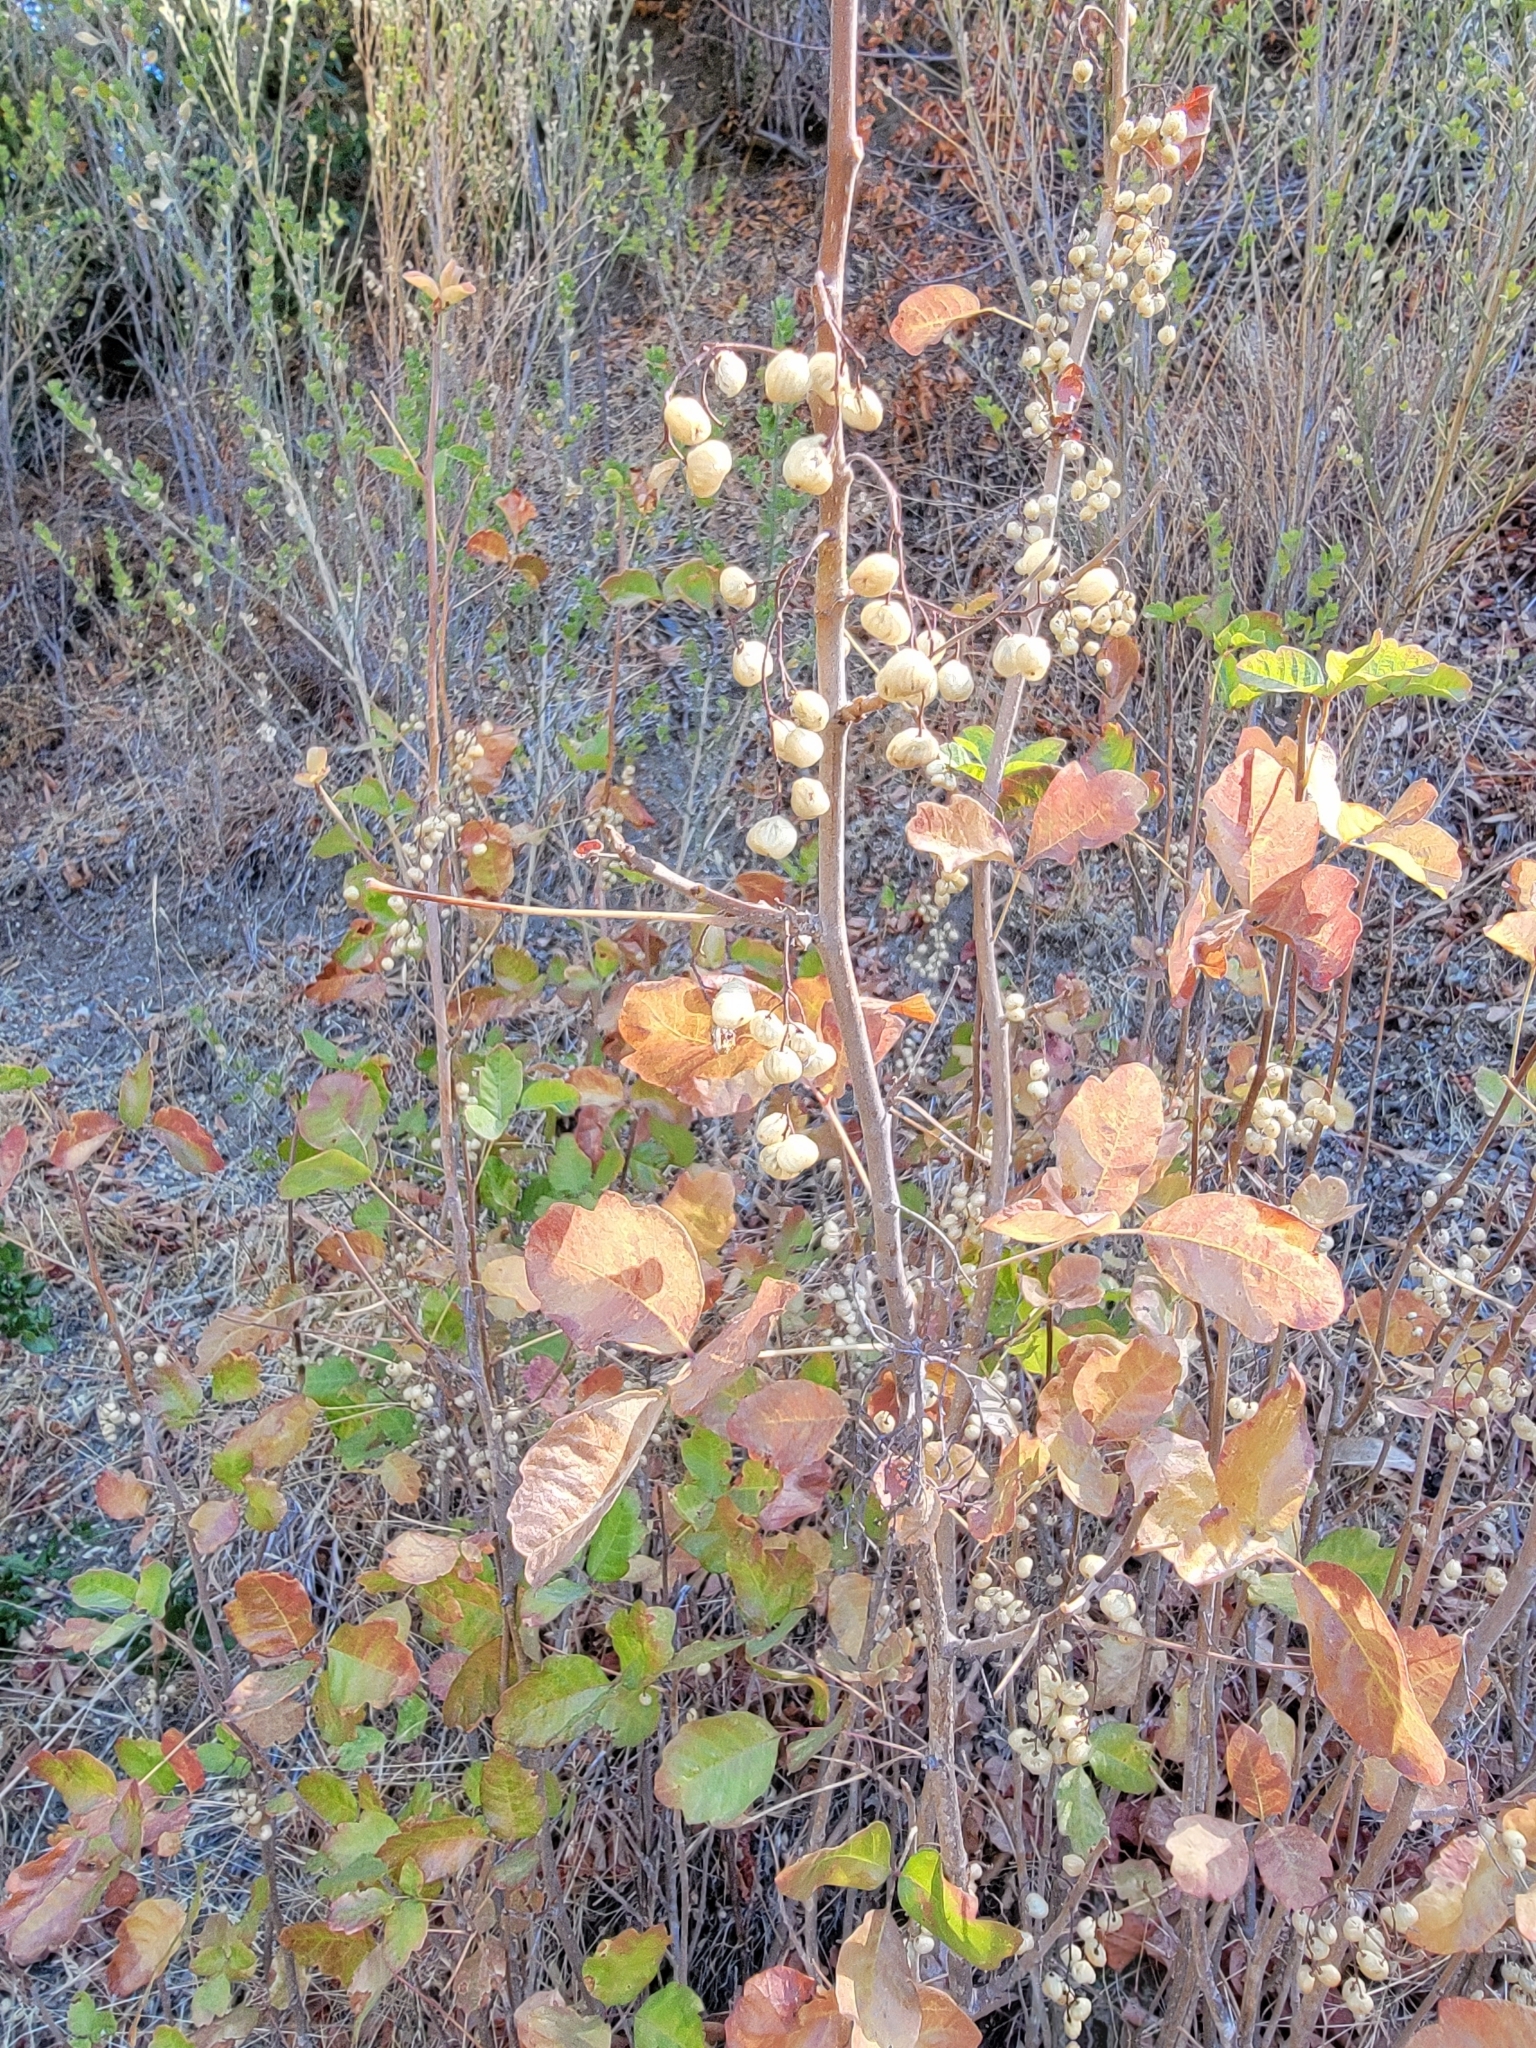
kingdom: Plantae
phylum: Tracheophyta
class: Magnoliopsida
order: Sapindales
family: Anacardiaceae
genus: Toxicodendron
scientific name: Toxicodendron diversilobum
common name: Pacific poison-oak
